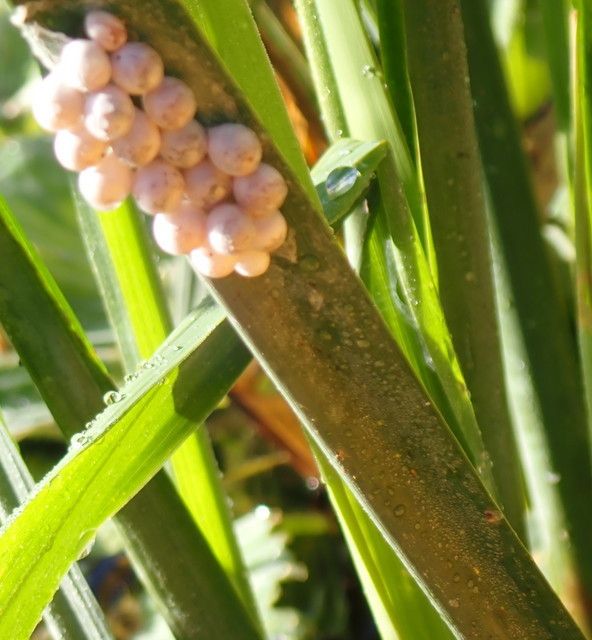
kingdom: Animalia
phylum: Mollusca
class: Gastropoda
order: Architaenioglossa
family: Ampullariidae
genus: Pomacea
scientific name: Pomacea paludosa
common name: Florida applesnail
